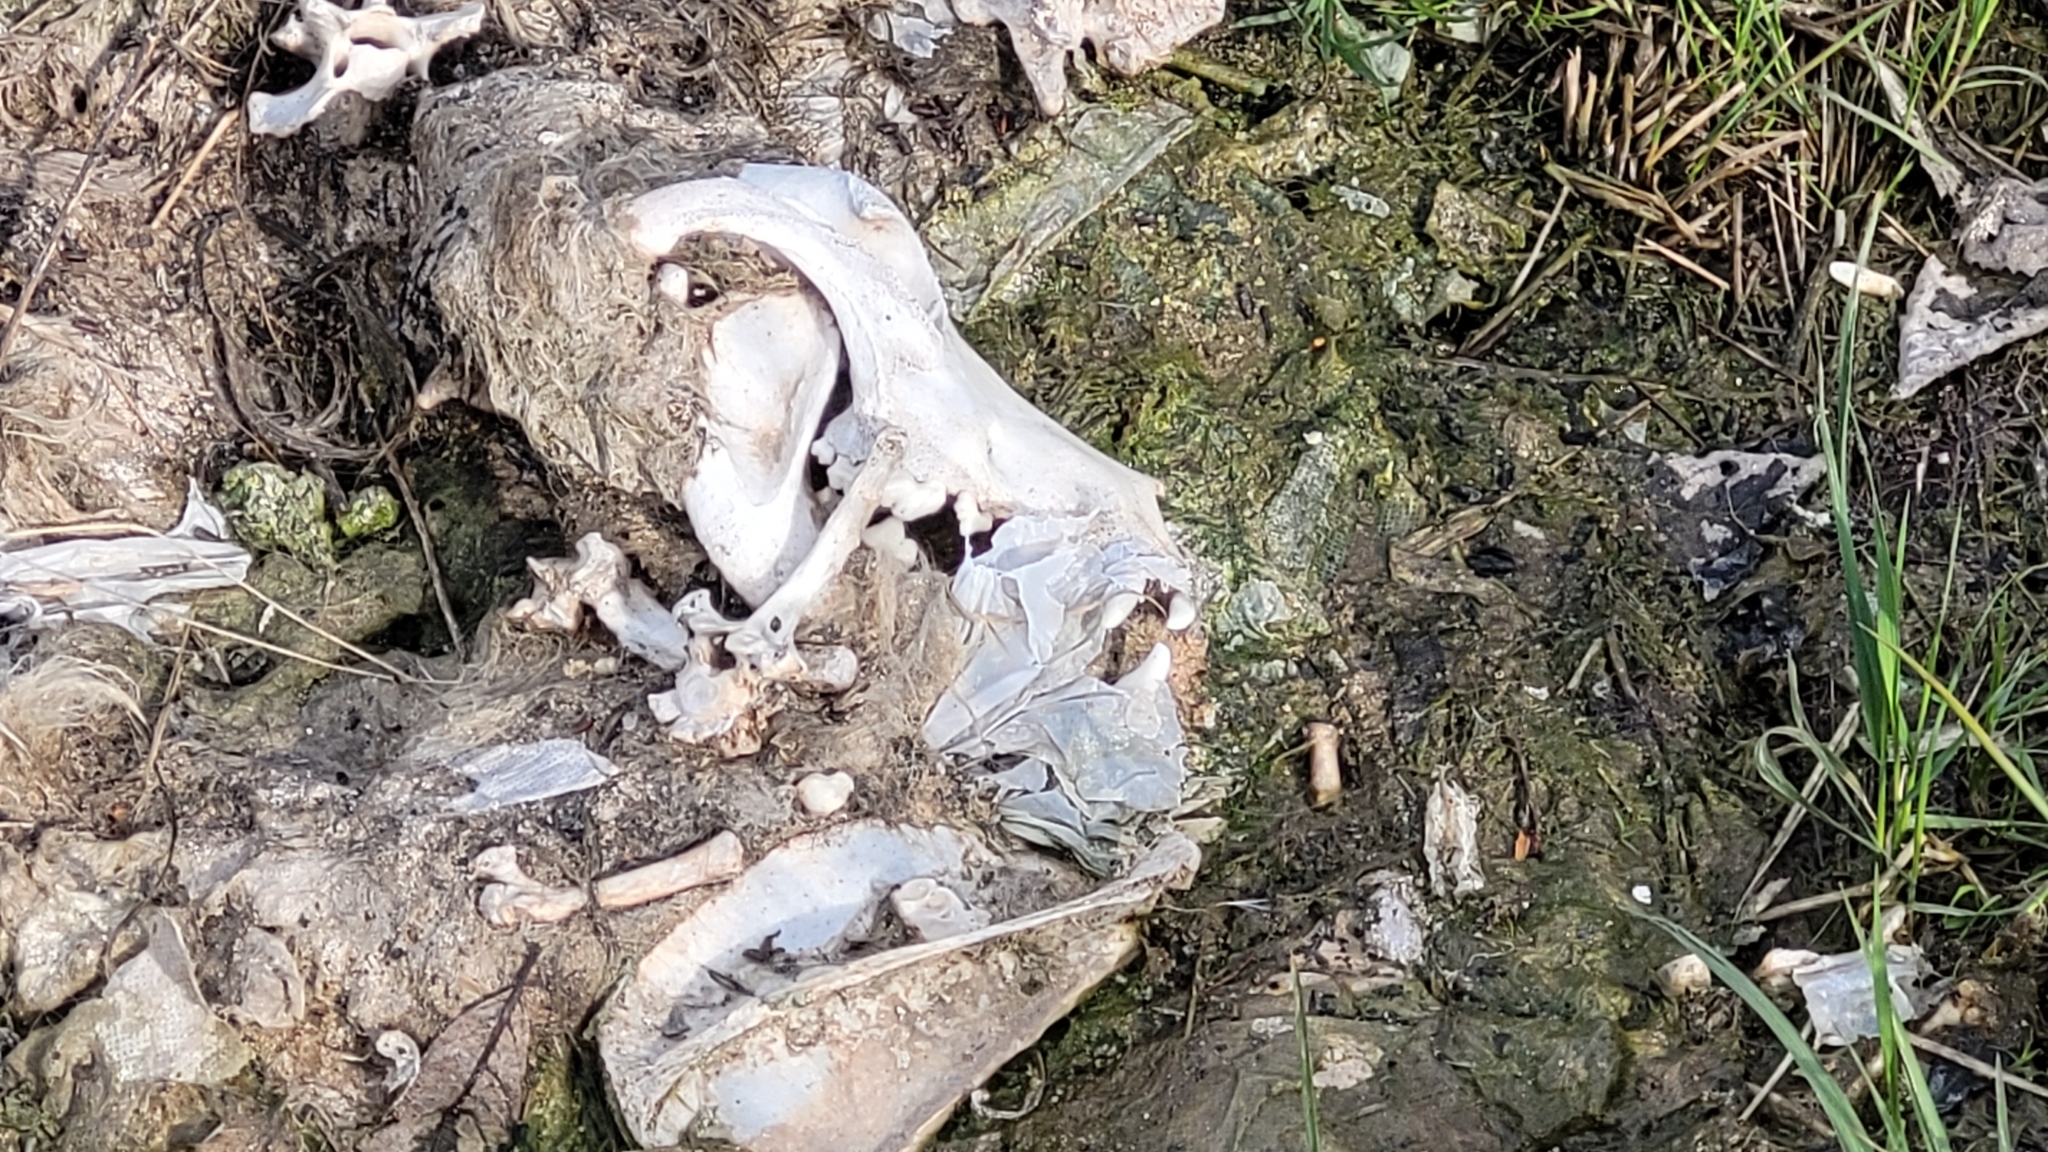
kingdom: Animalia
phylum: Chordata
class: Mammalia
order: Carnivora
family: Canidae
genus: Canis
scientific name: Canis lupus
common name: Gray wolf
